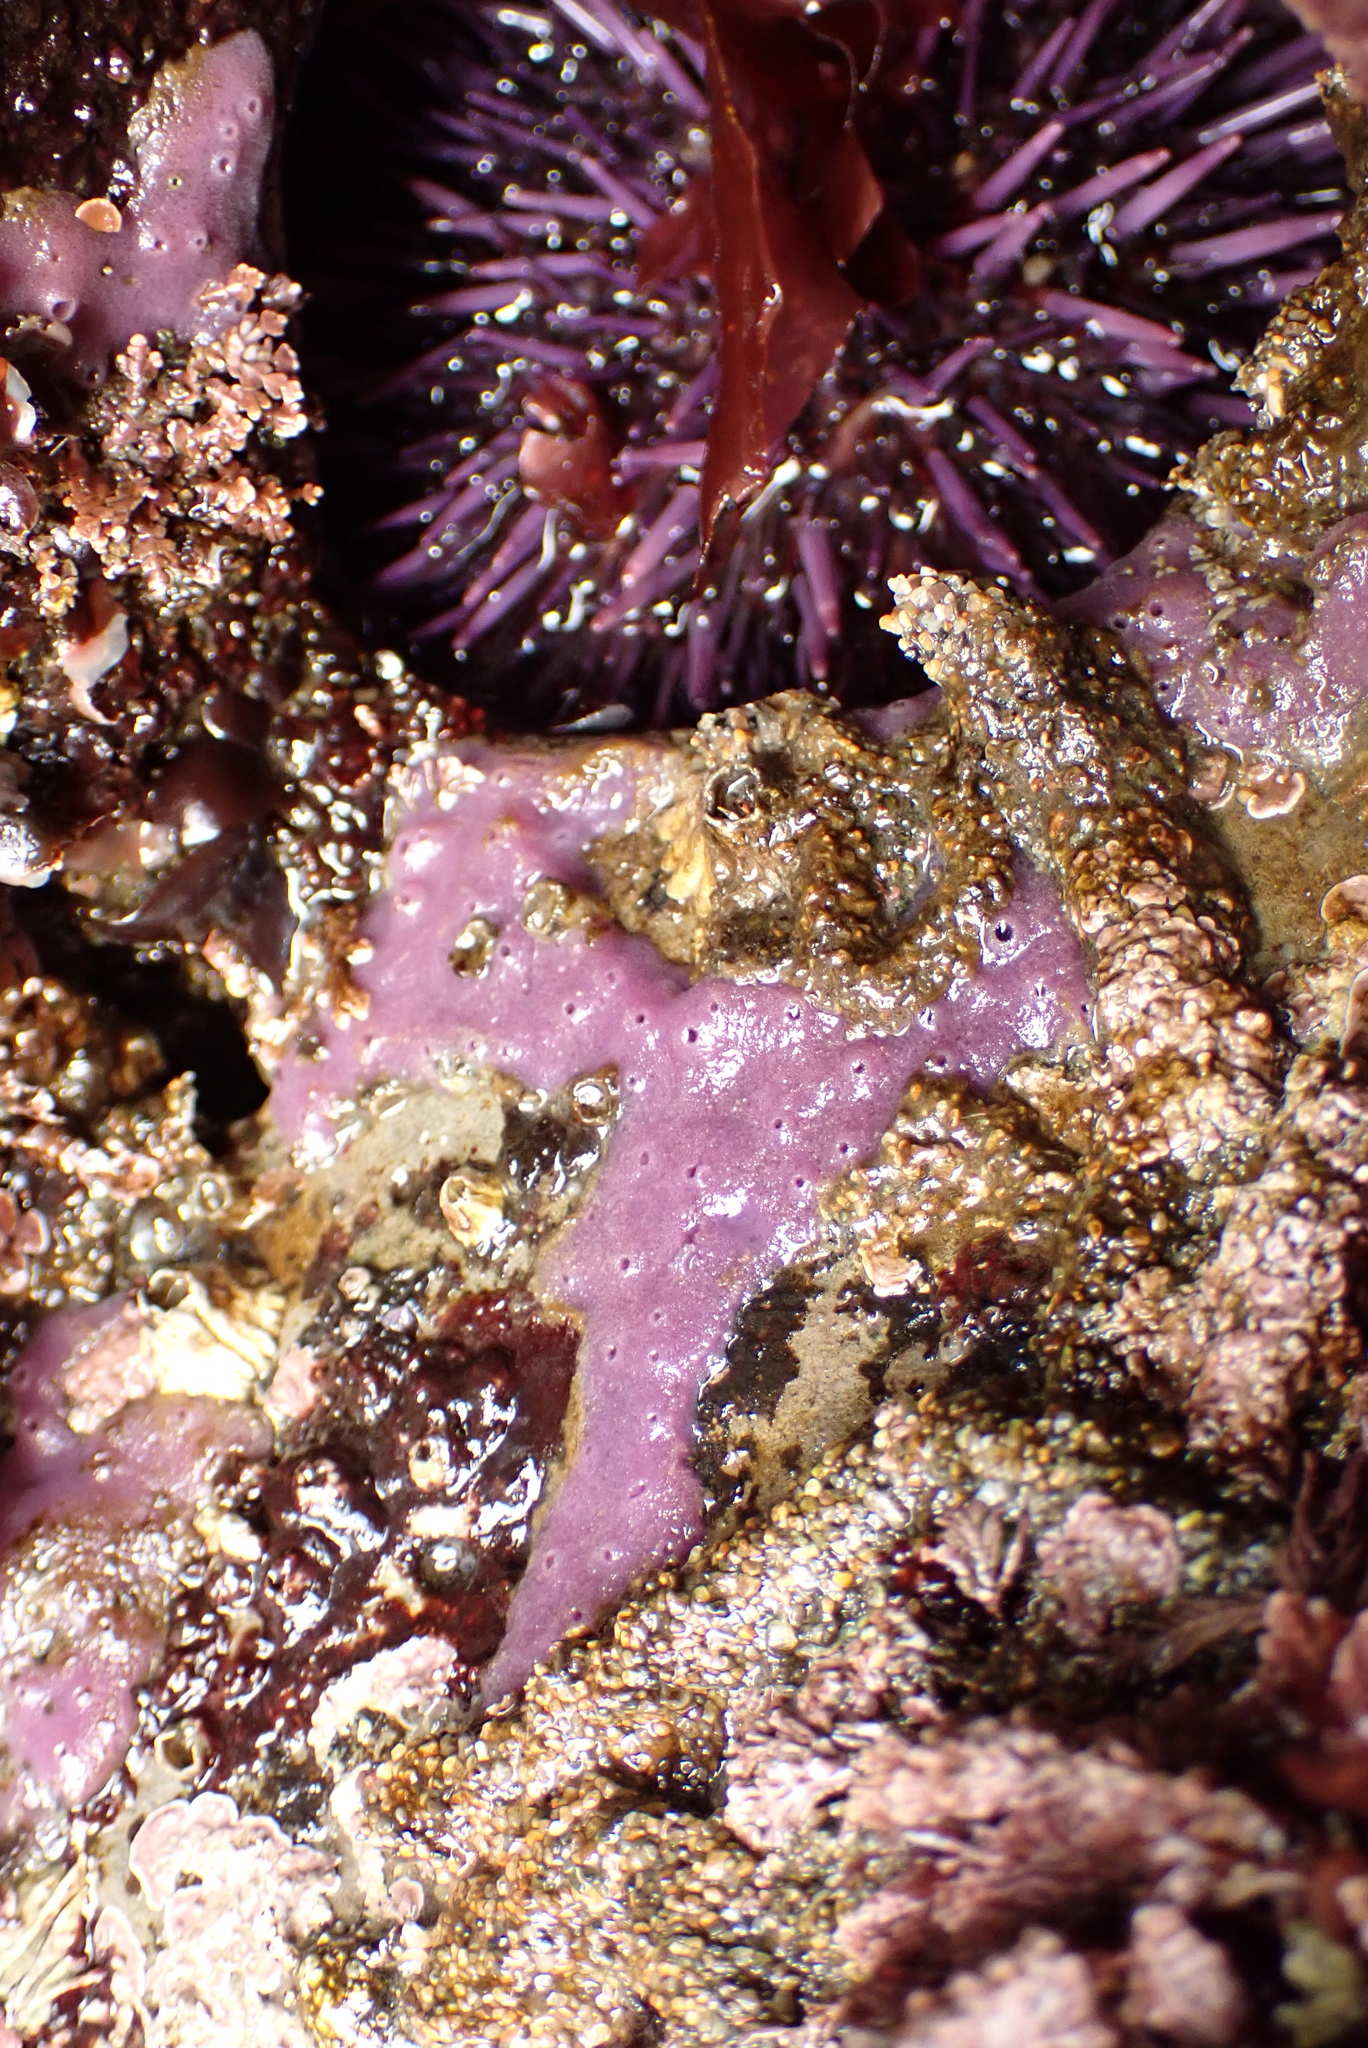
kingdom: Animalia
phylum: Echinodermata
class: Echinoidea
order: Camarodonta
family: Strongylocentrotidae
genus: Strongylocentrotus
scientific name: Strongylocentrotus purpuratus
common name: Purple sea urchin
